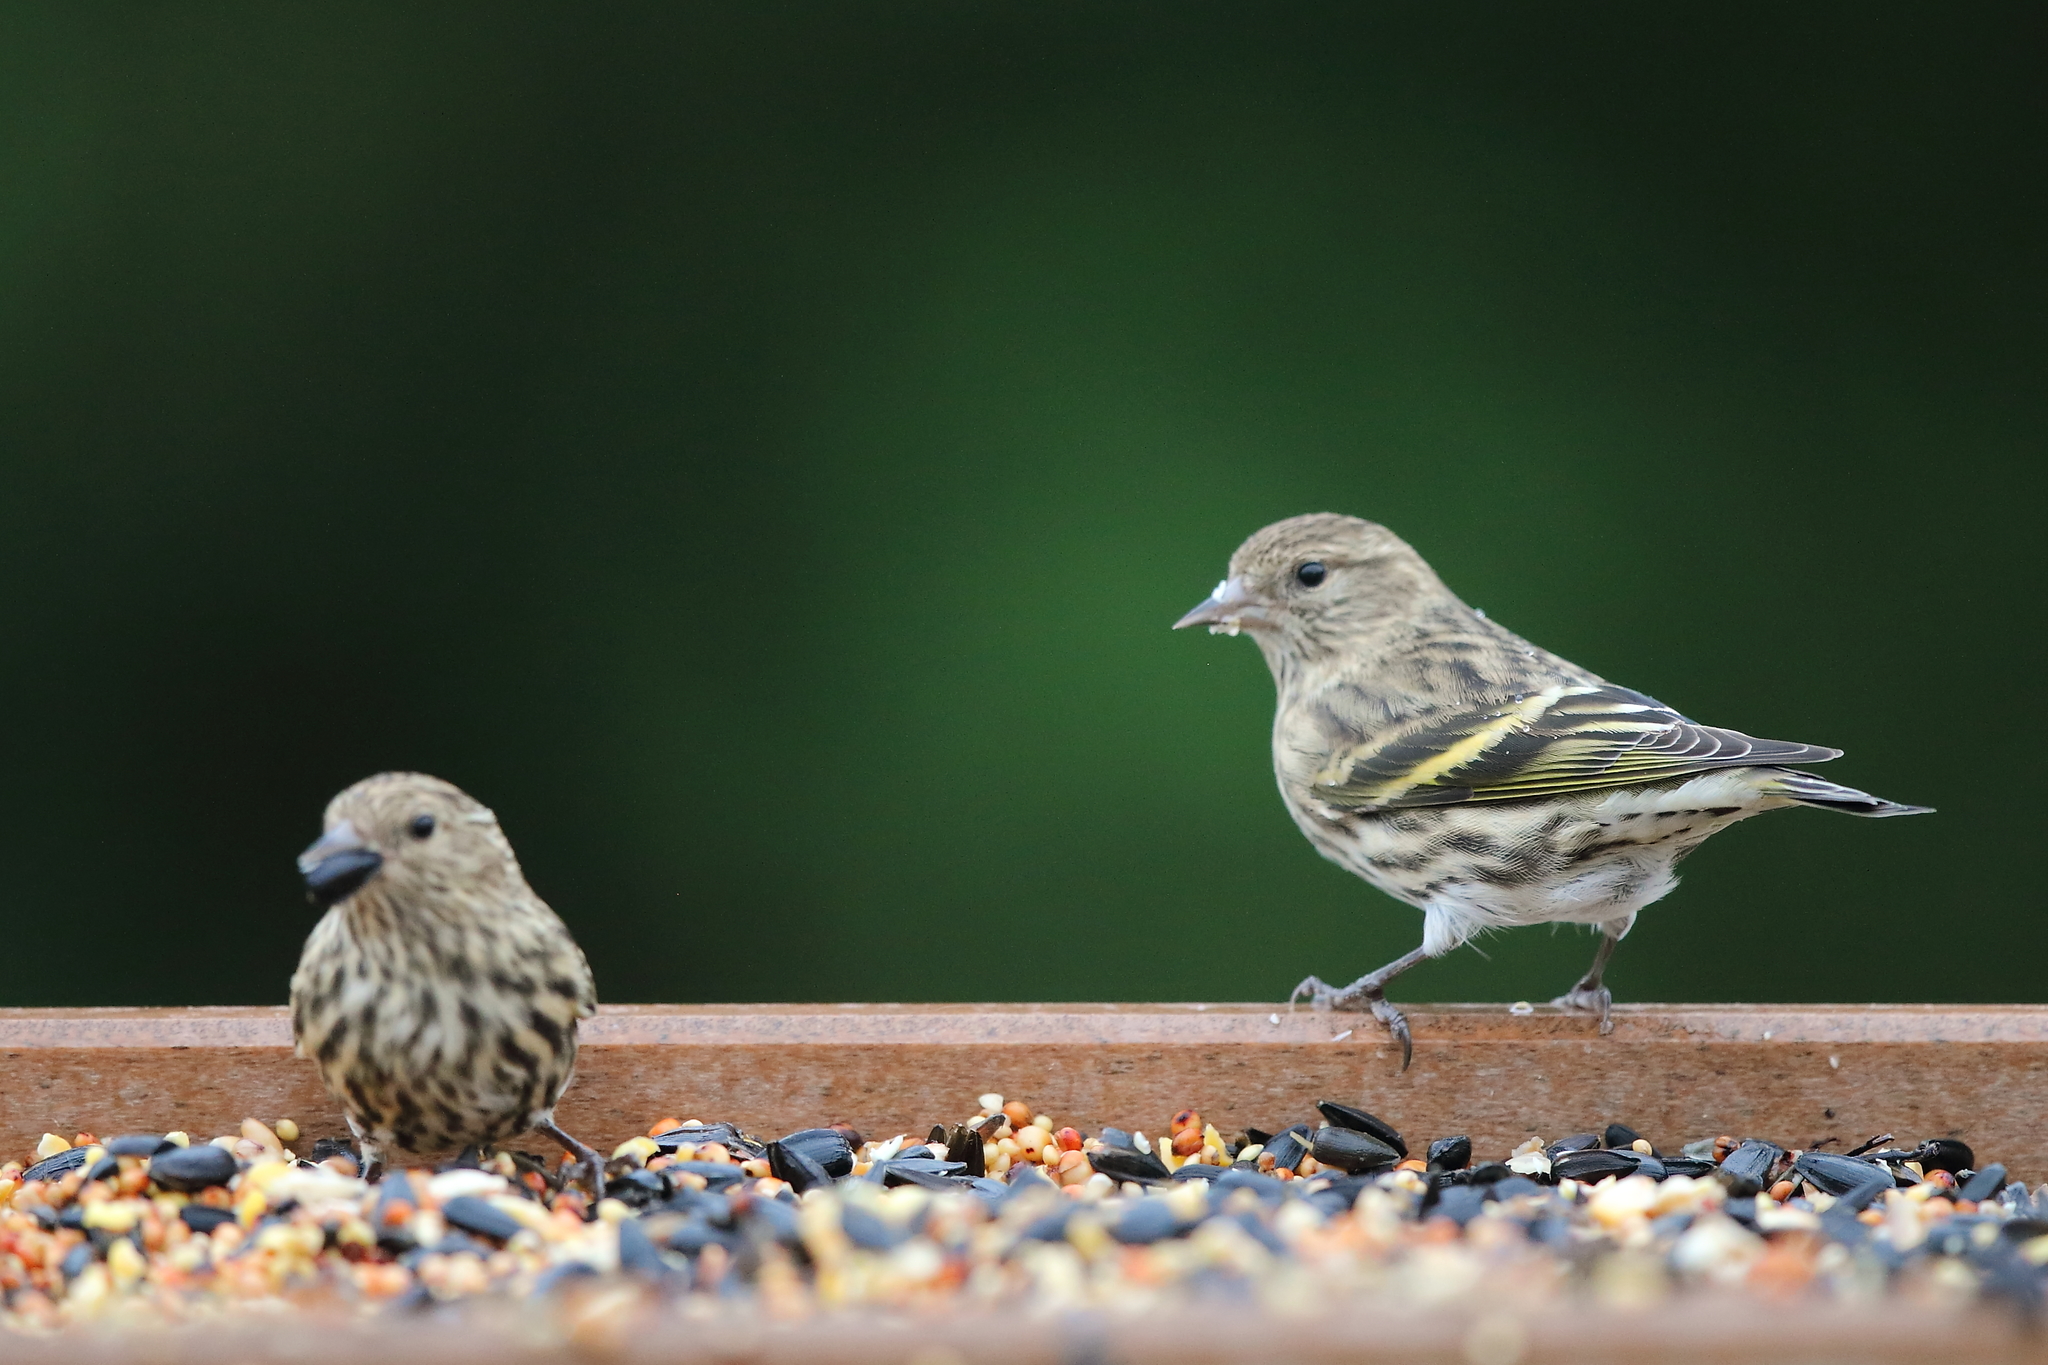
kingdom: Animalia
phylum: Chordata
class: Aves
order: Passeriformes
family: Fringillidae
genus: Spinus
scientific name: Spinus pinus
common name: Pine siskin
